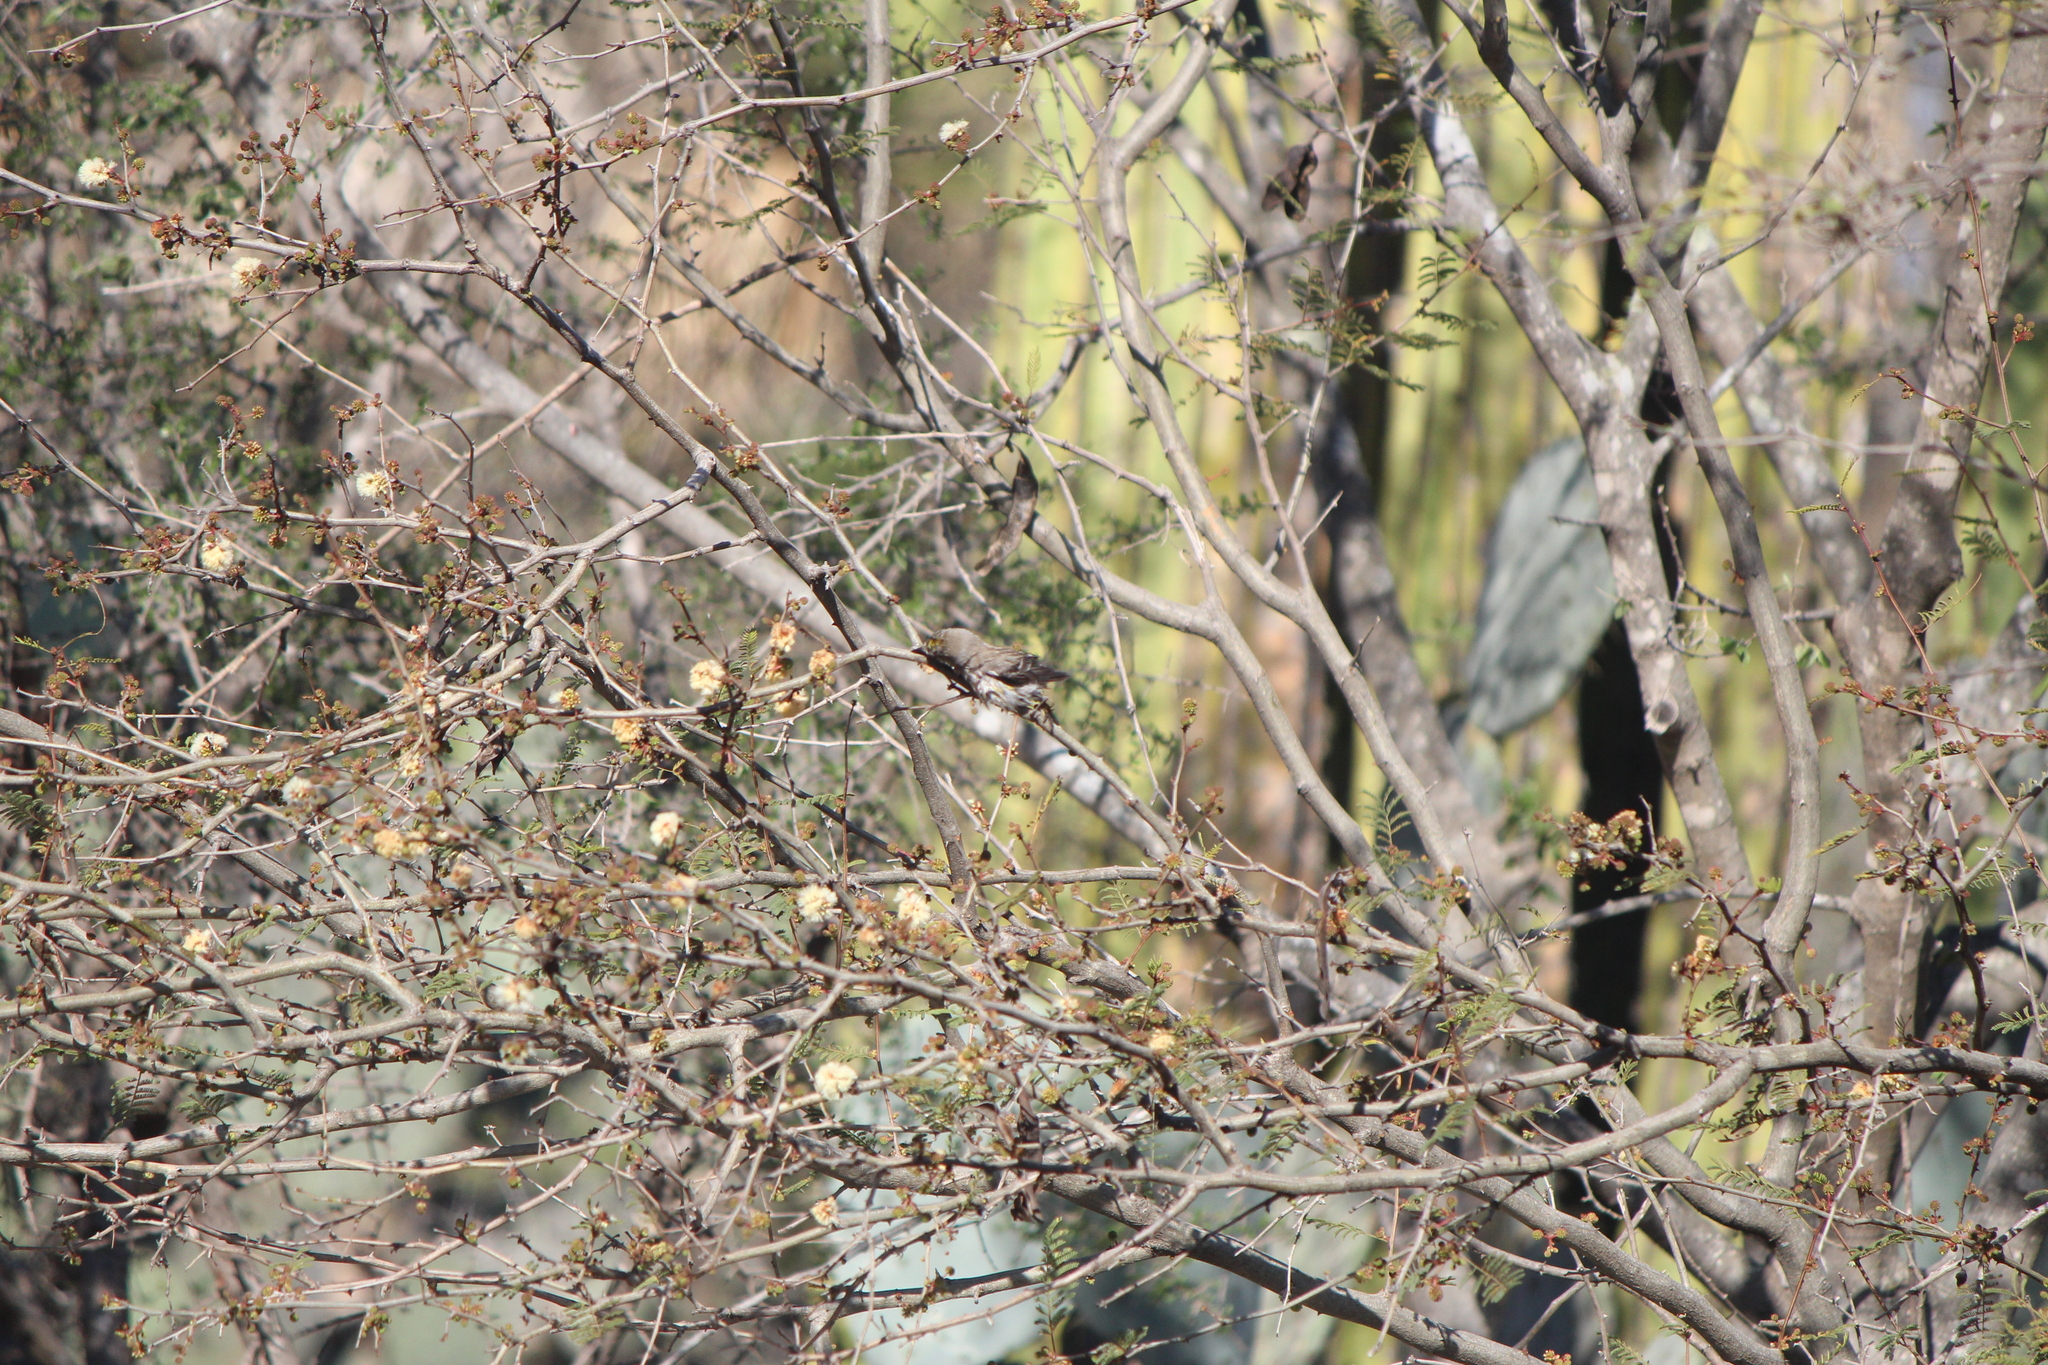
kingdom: Animalia
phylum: Chordata
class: Aves
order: Passeriformes
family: Parulidae
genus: Setophaga
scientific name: Setophaga coronata
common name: Myrtle warbler
